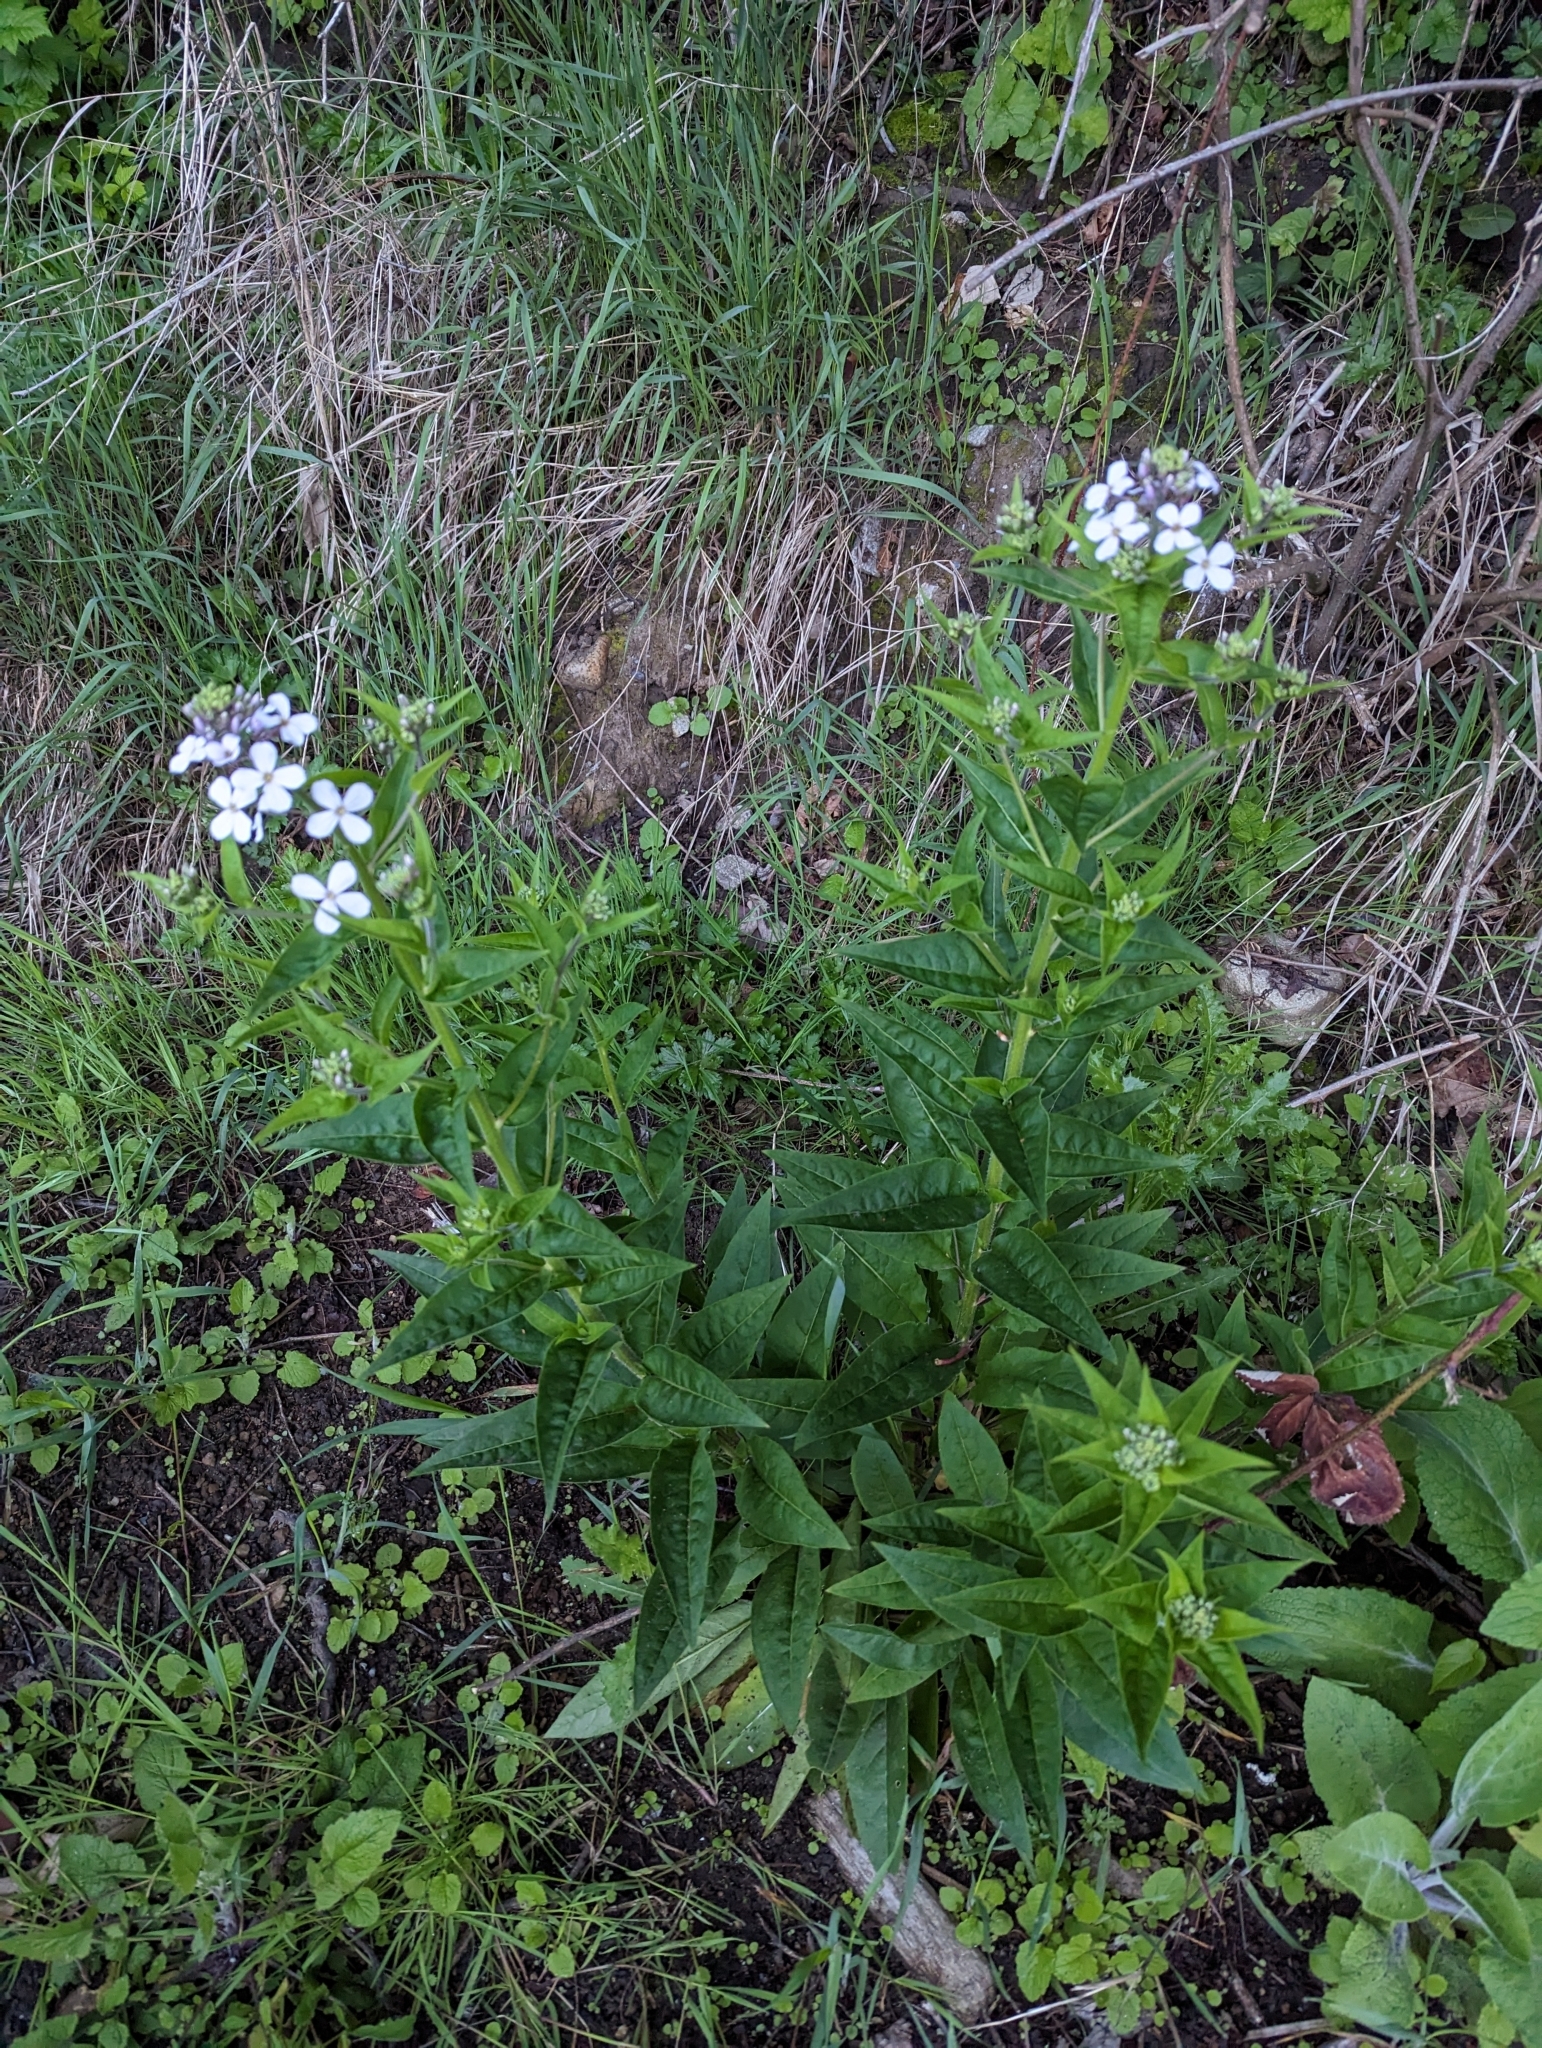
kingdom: Plantae
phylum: Tracheophyta
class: Magnoliopsida
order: Brassicales
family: Brassicaceae
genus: Hesperis
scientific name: Hesperis matronalis
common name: Dame's-violet
